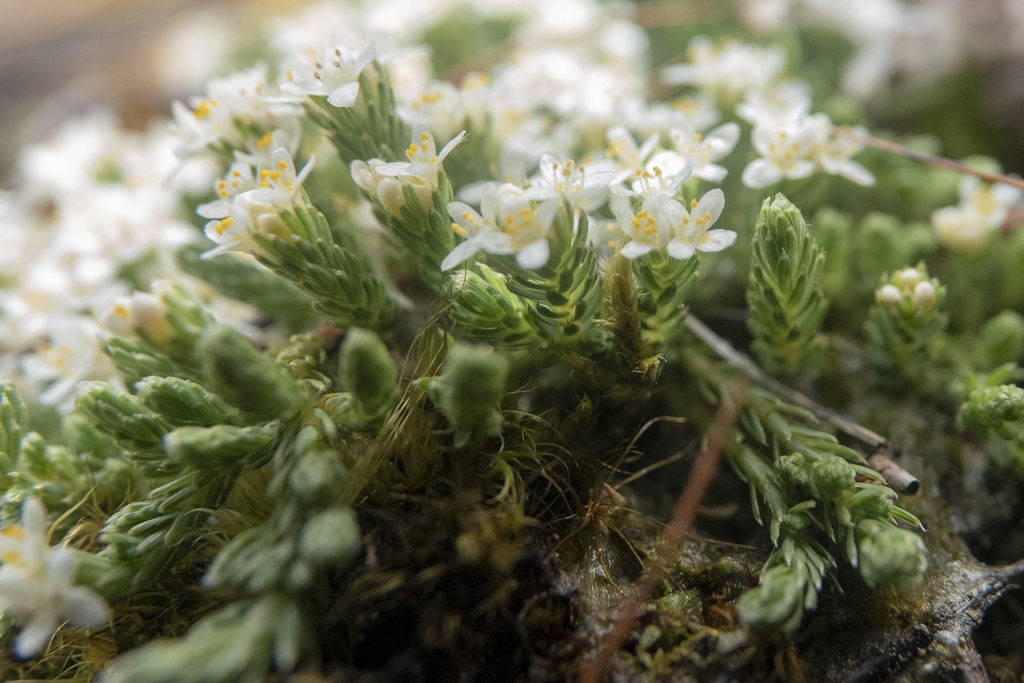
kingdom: Plantae
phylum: Tracheophyta
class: Magnoliopsida
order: Malvales
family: Thymelaeaceae
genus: Kelleria
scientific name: Kelleria dieffenbachii
